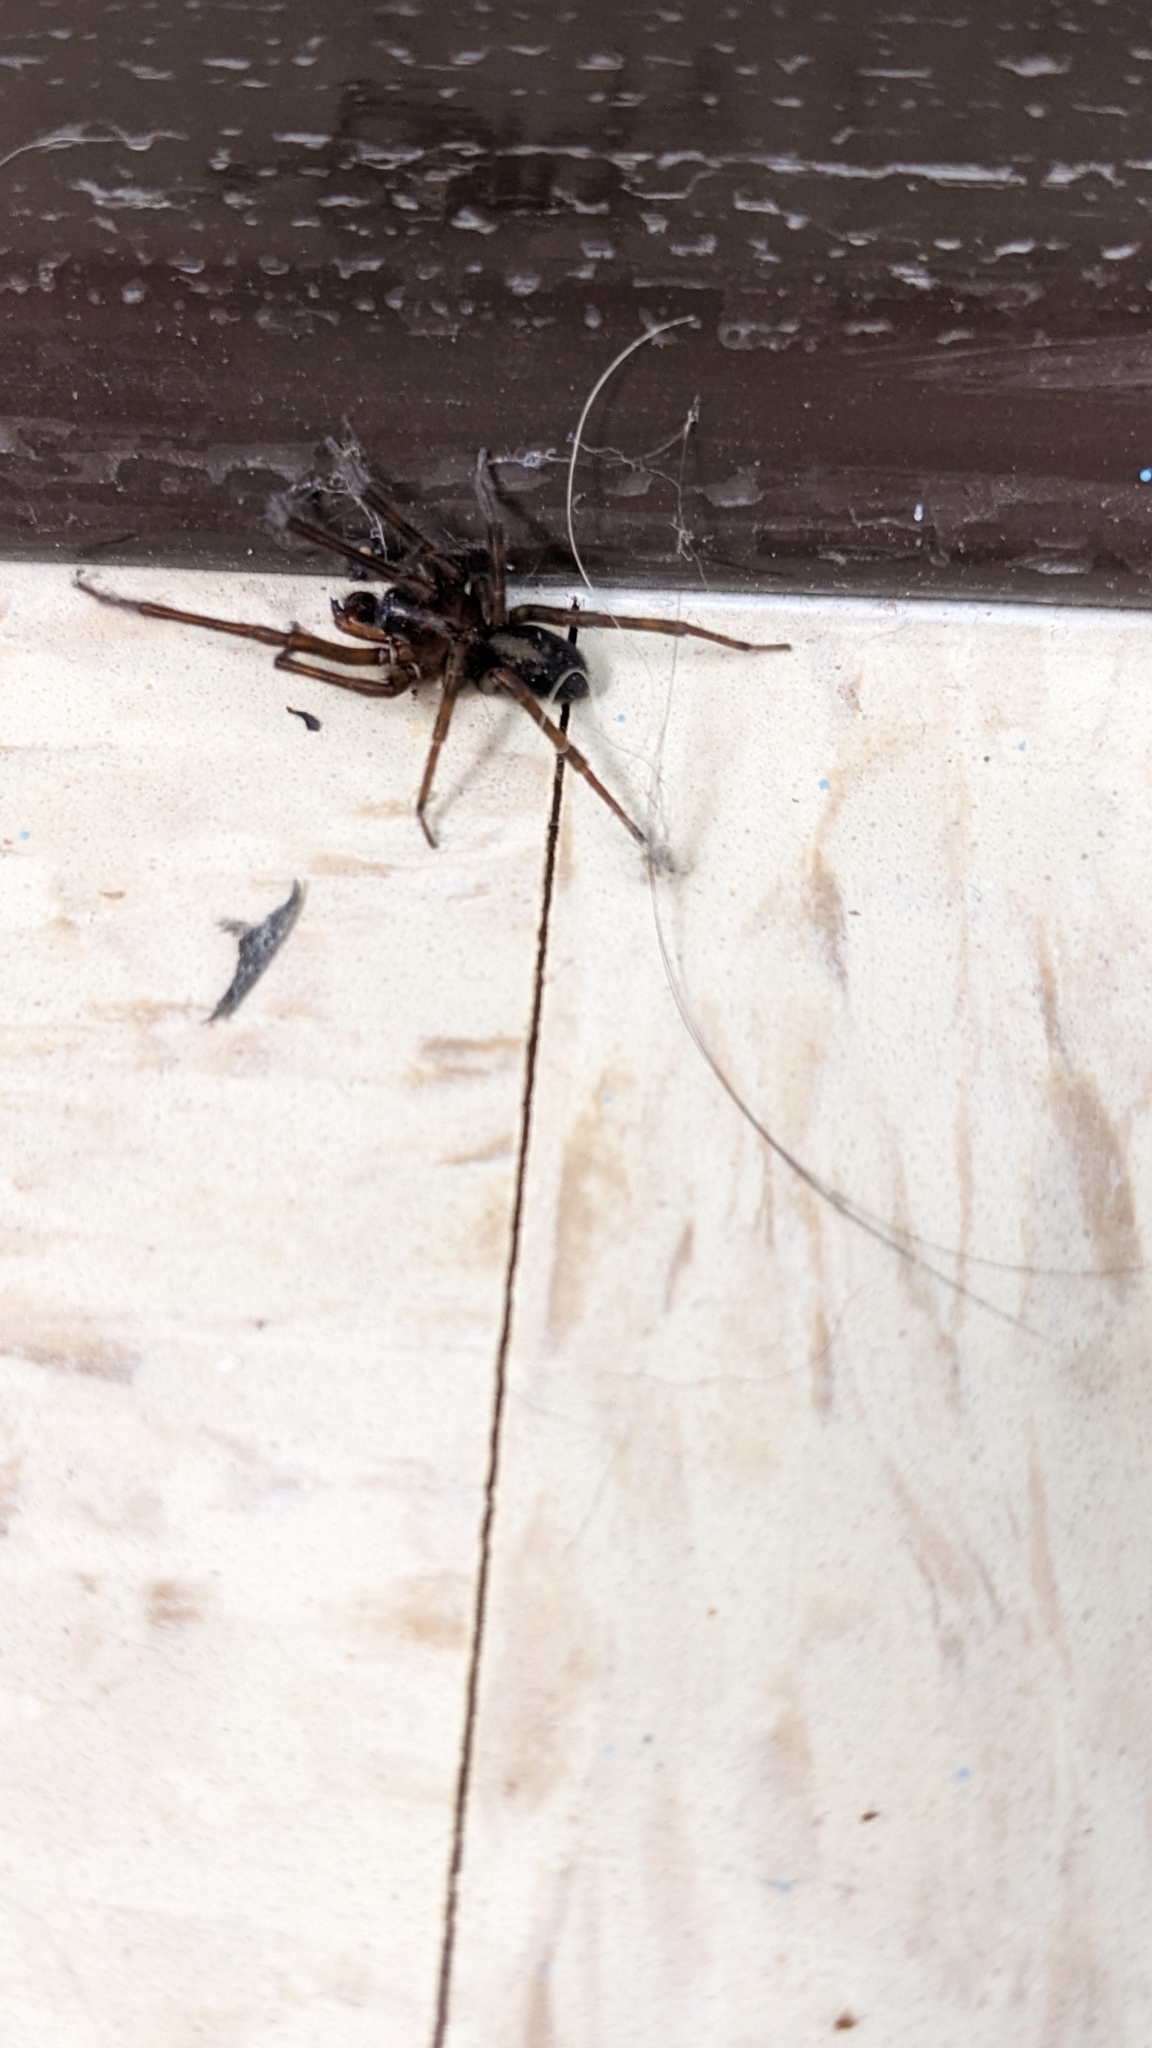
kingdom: Animalia
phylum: Arthropoda
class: Arachnida
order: Araneae
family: Amaurobiidae
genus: Amaurobius
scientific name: Amaurobius ferox
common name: Black laceweaver
